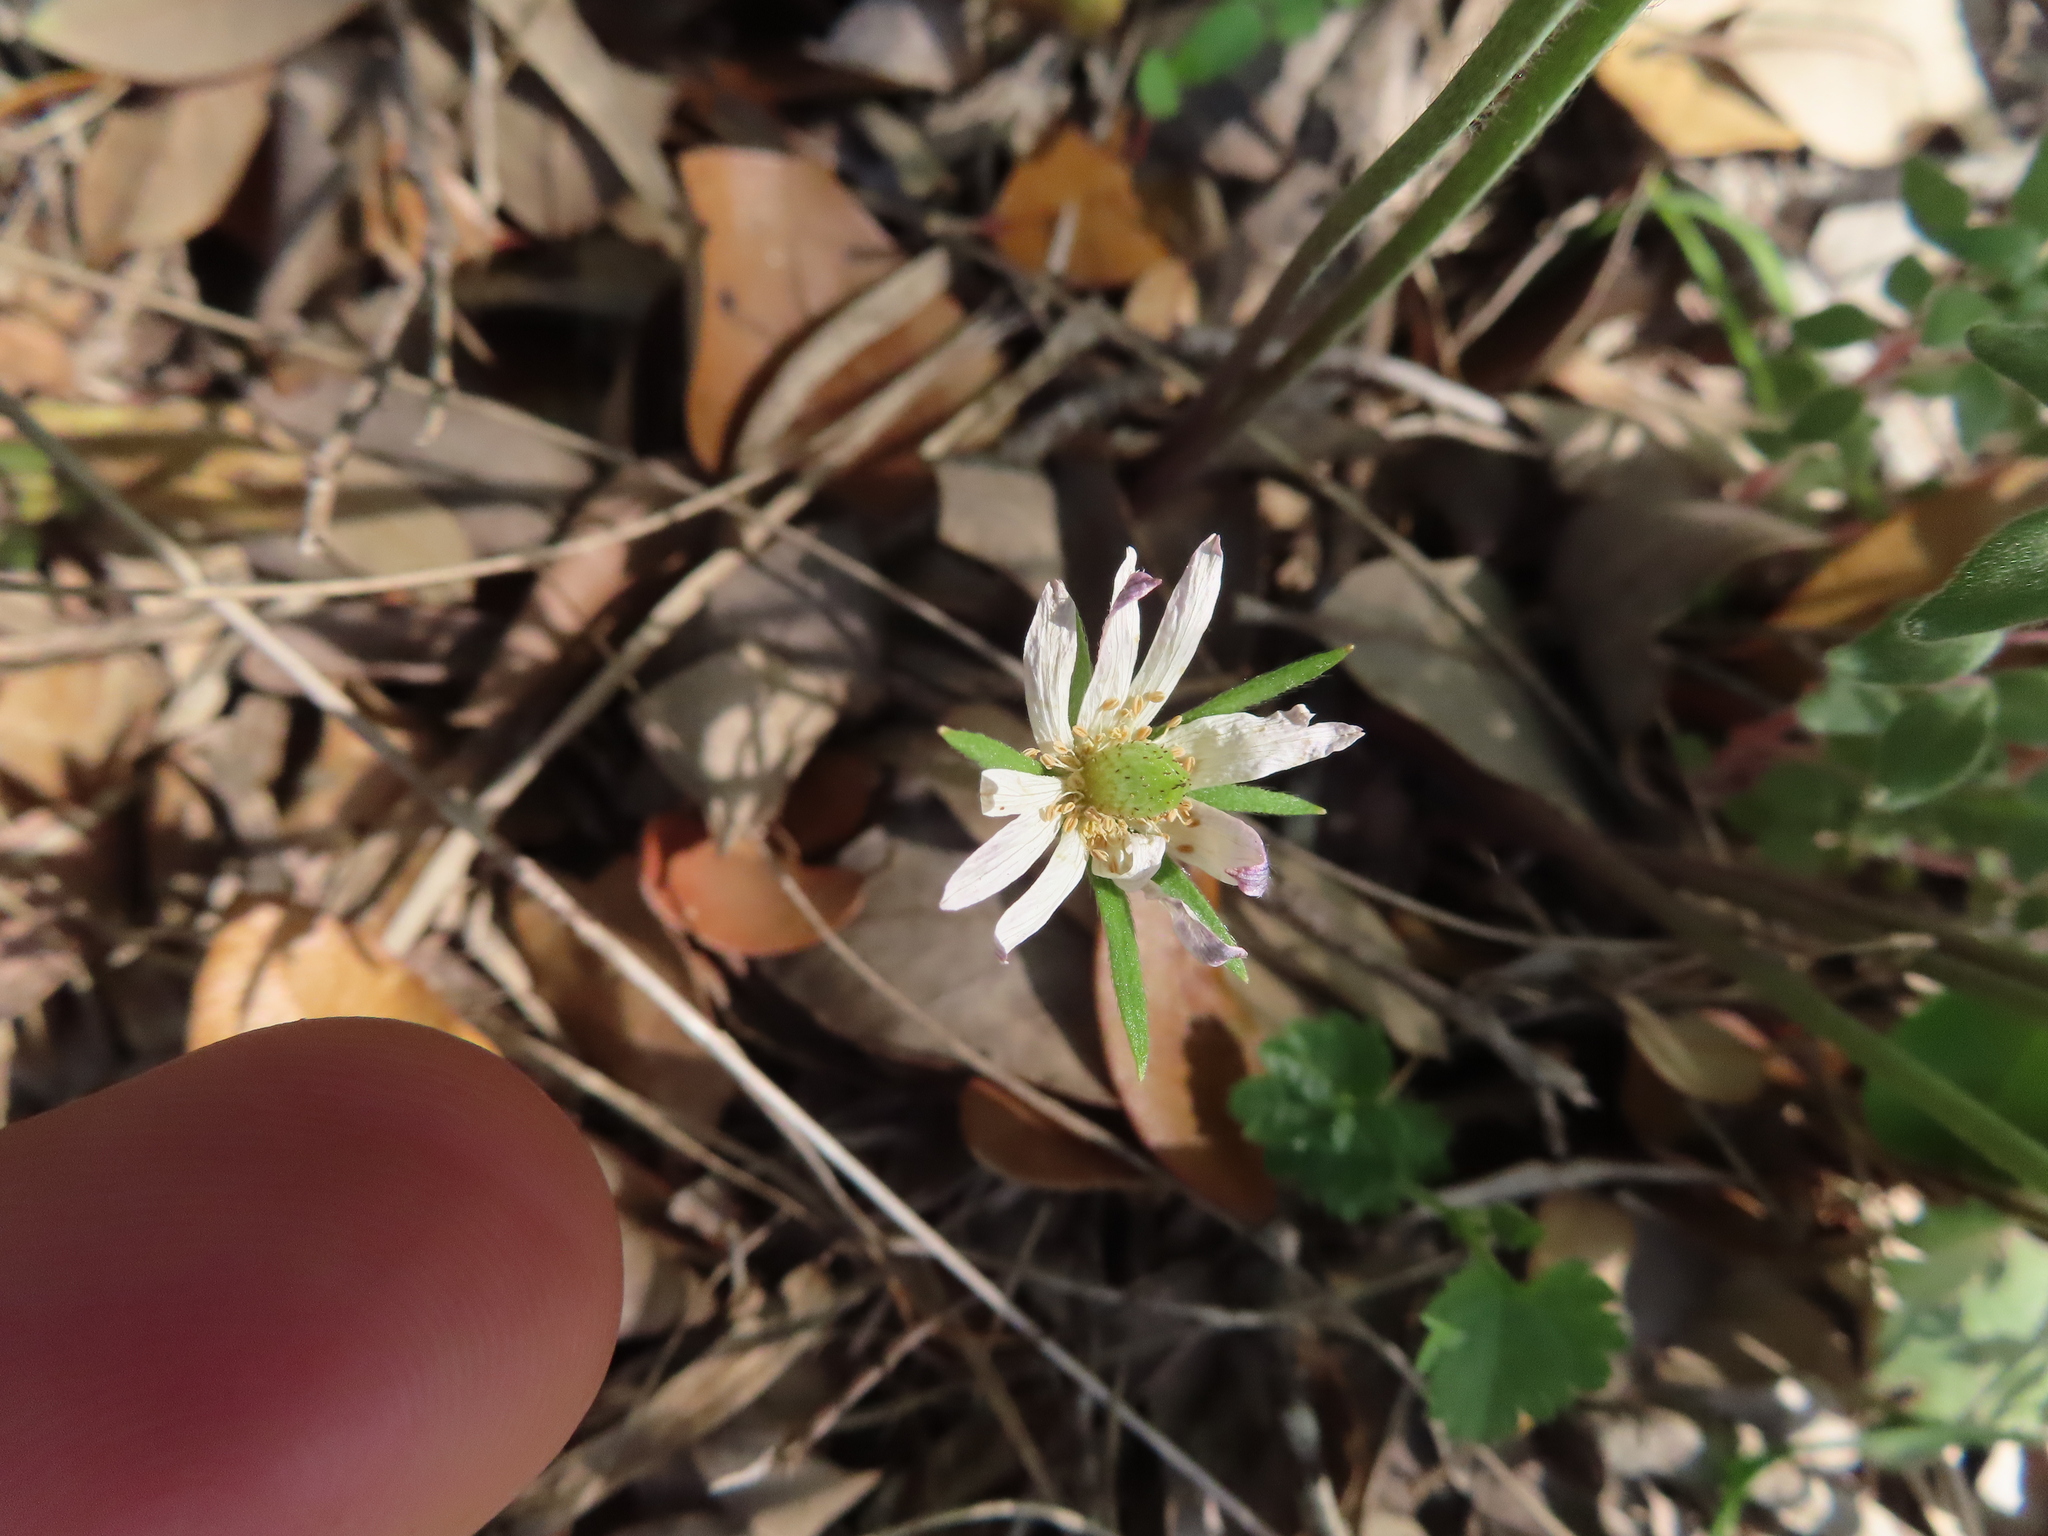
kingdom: Plantae
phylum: Tracheophyta
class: Magnoliopsida
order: Ranunculales
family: Ranunculaceae
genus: Anemone
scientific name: Anemone berlandieri
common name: Ten-petal anemone
